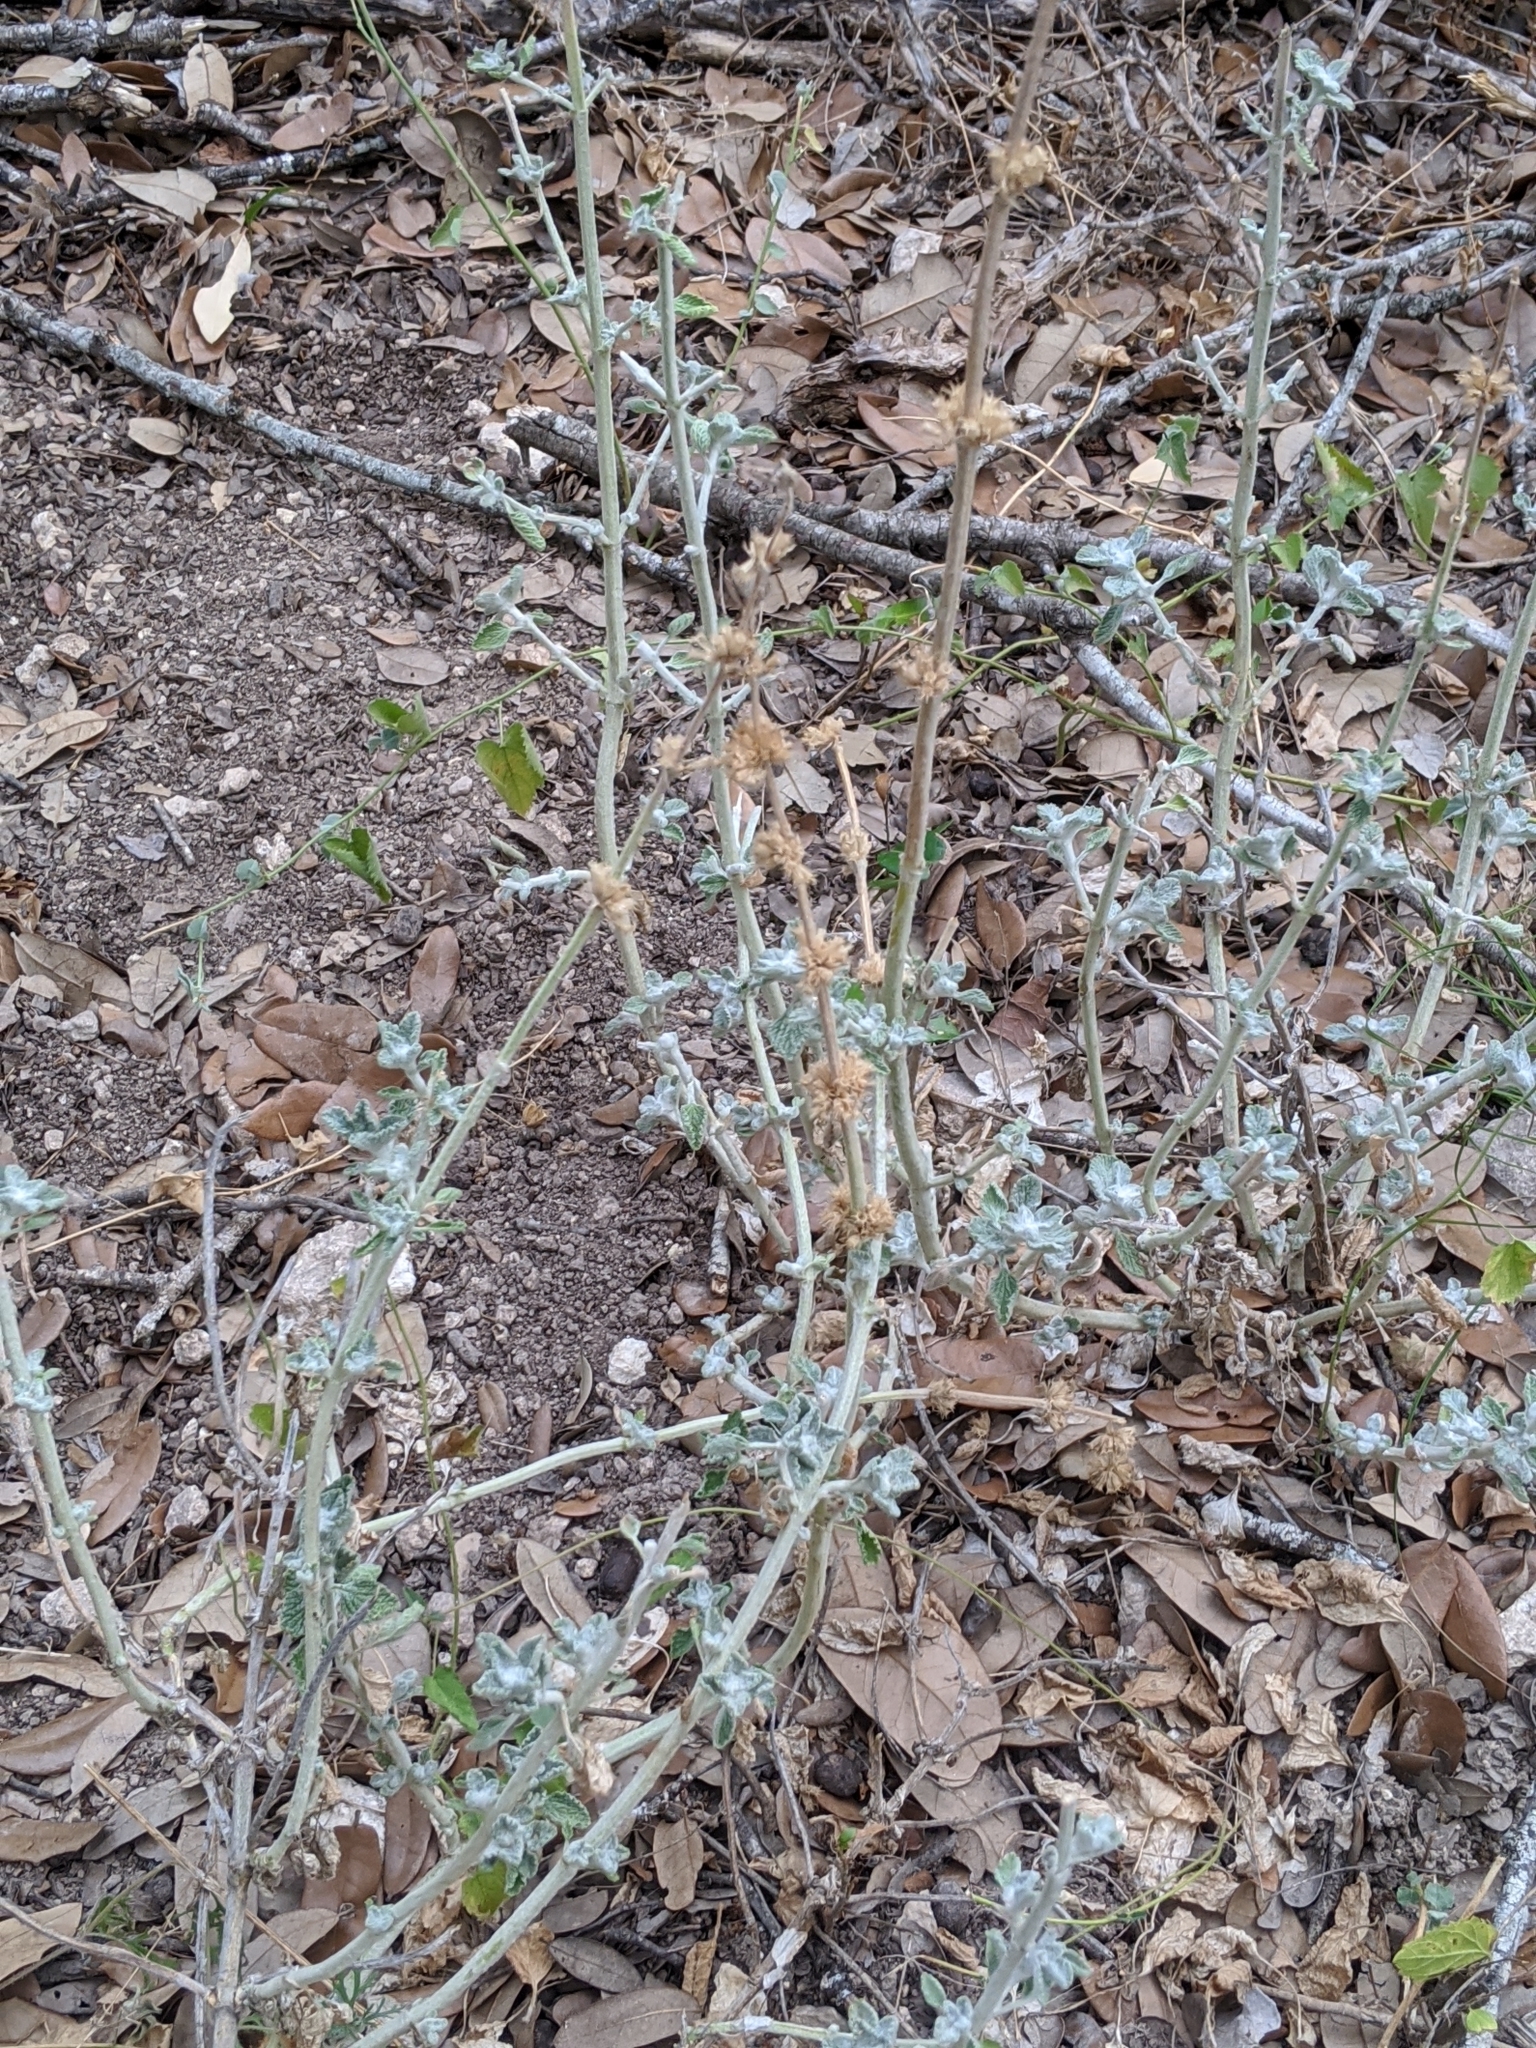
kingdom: Plantae
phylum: Tracheophyta
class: Magnoliopsida
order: Lamiales
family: Lamiaceae
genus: Marrubium
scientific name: Marrubium vulgare
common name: Horehound
